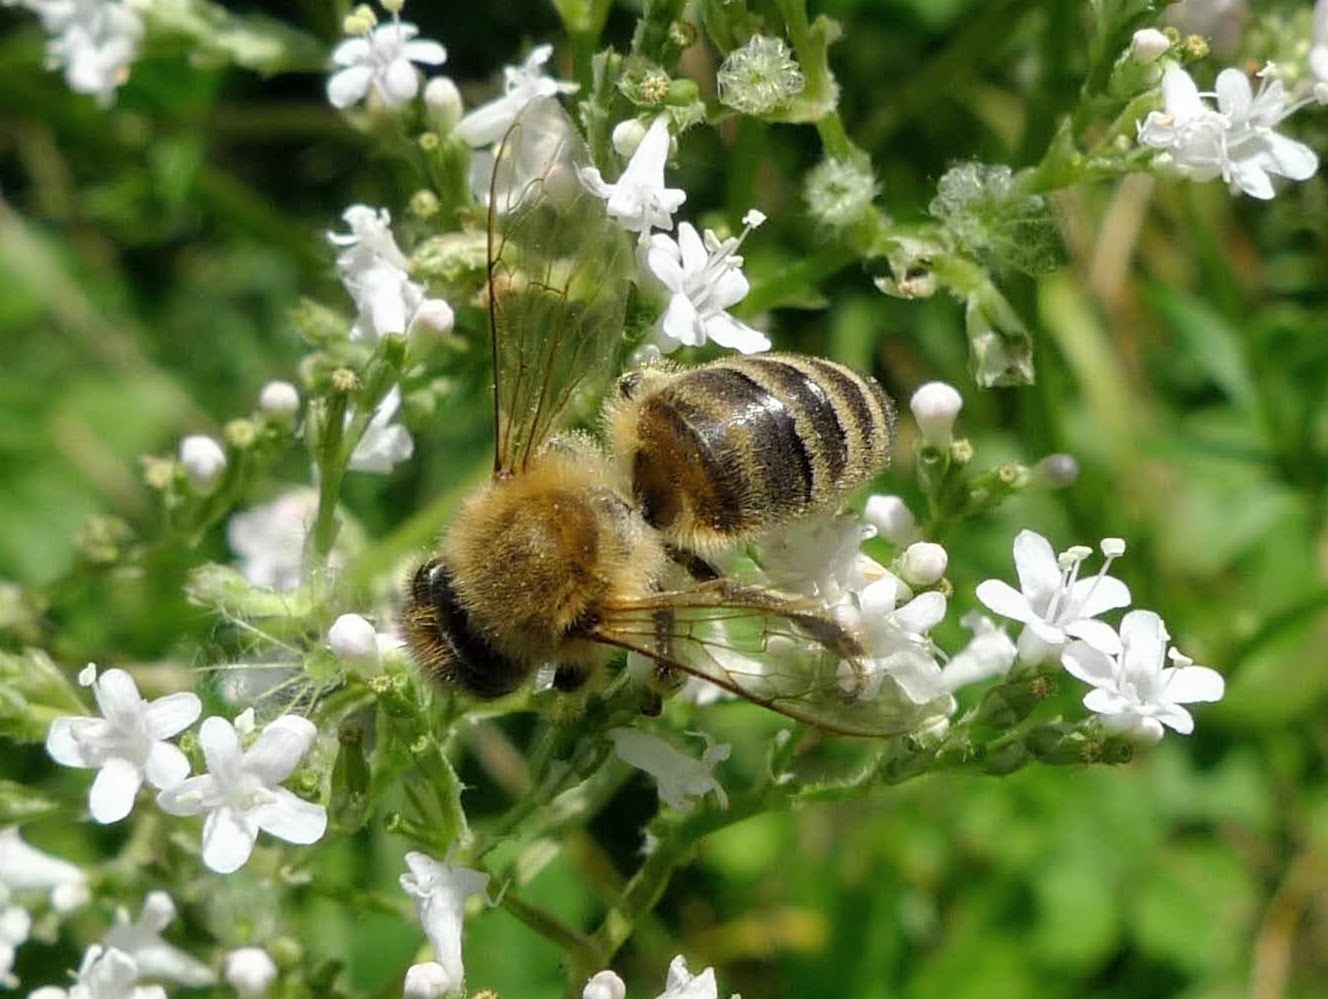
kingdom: Animalia
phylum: Arthropoda
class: Insecta
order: Hymenoptera
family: Apidae
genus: Apis
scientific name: Apis mellifera
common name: Honey bee
